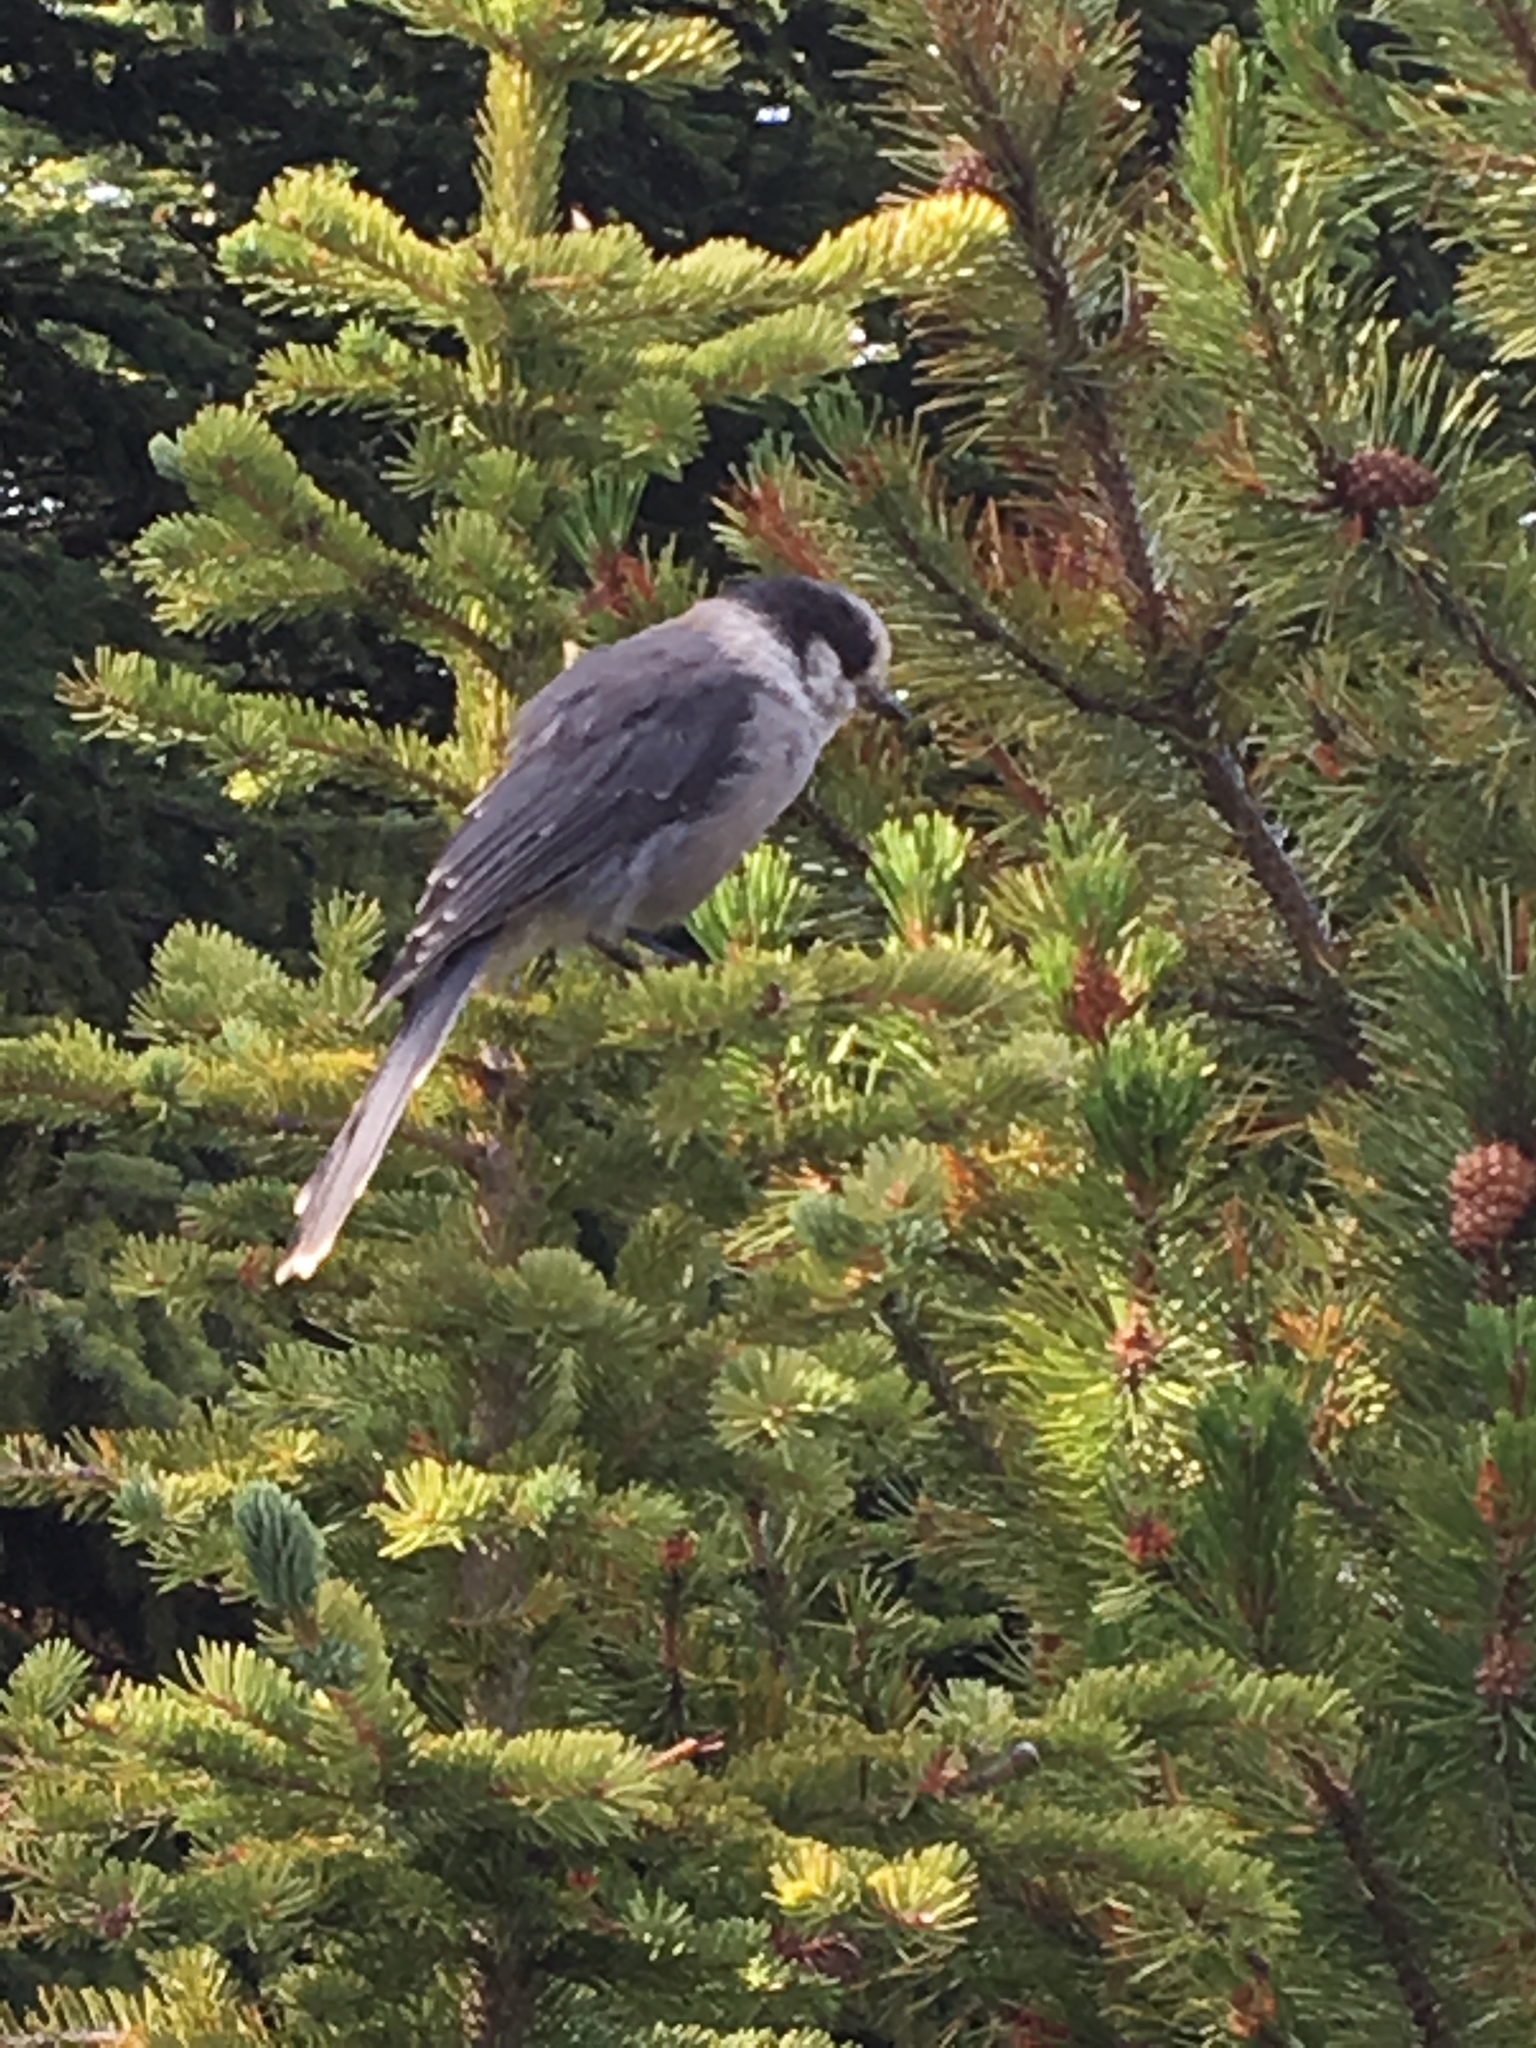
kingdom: Animalia
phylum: Chordata
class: Aves
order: Passeriformes
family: Corvidae
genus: Perisoreus
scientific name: Perisoreus canadensis
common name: Gray jay
